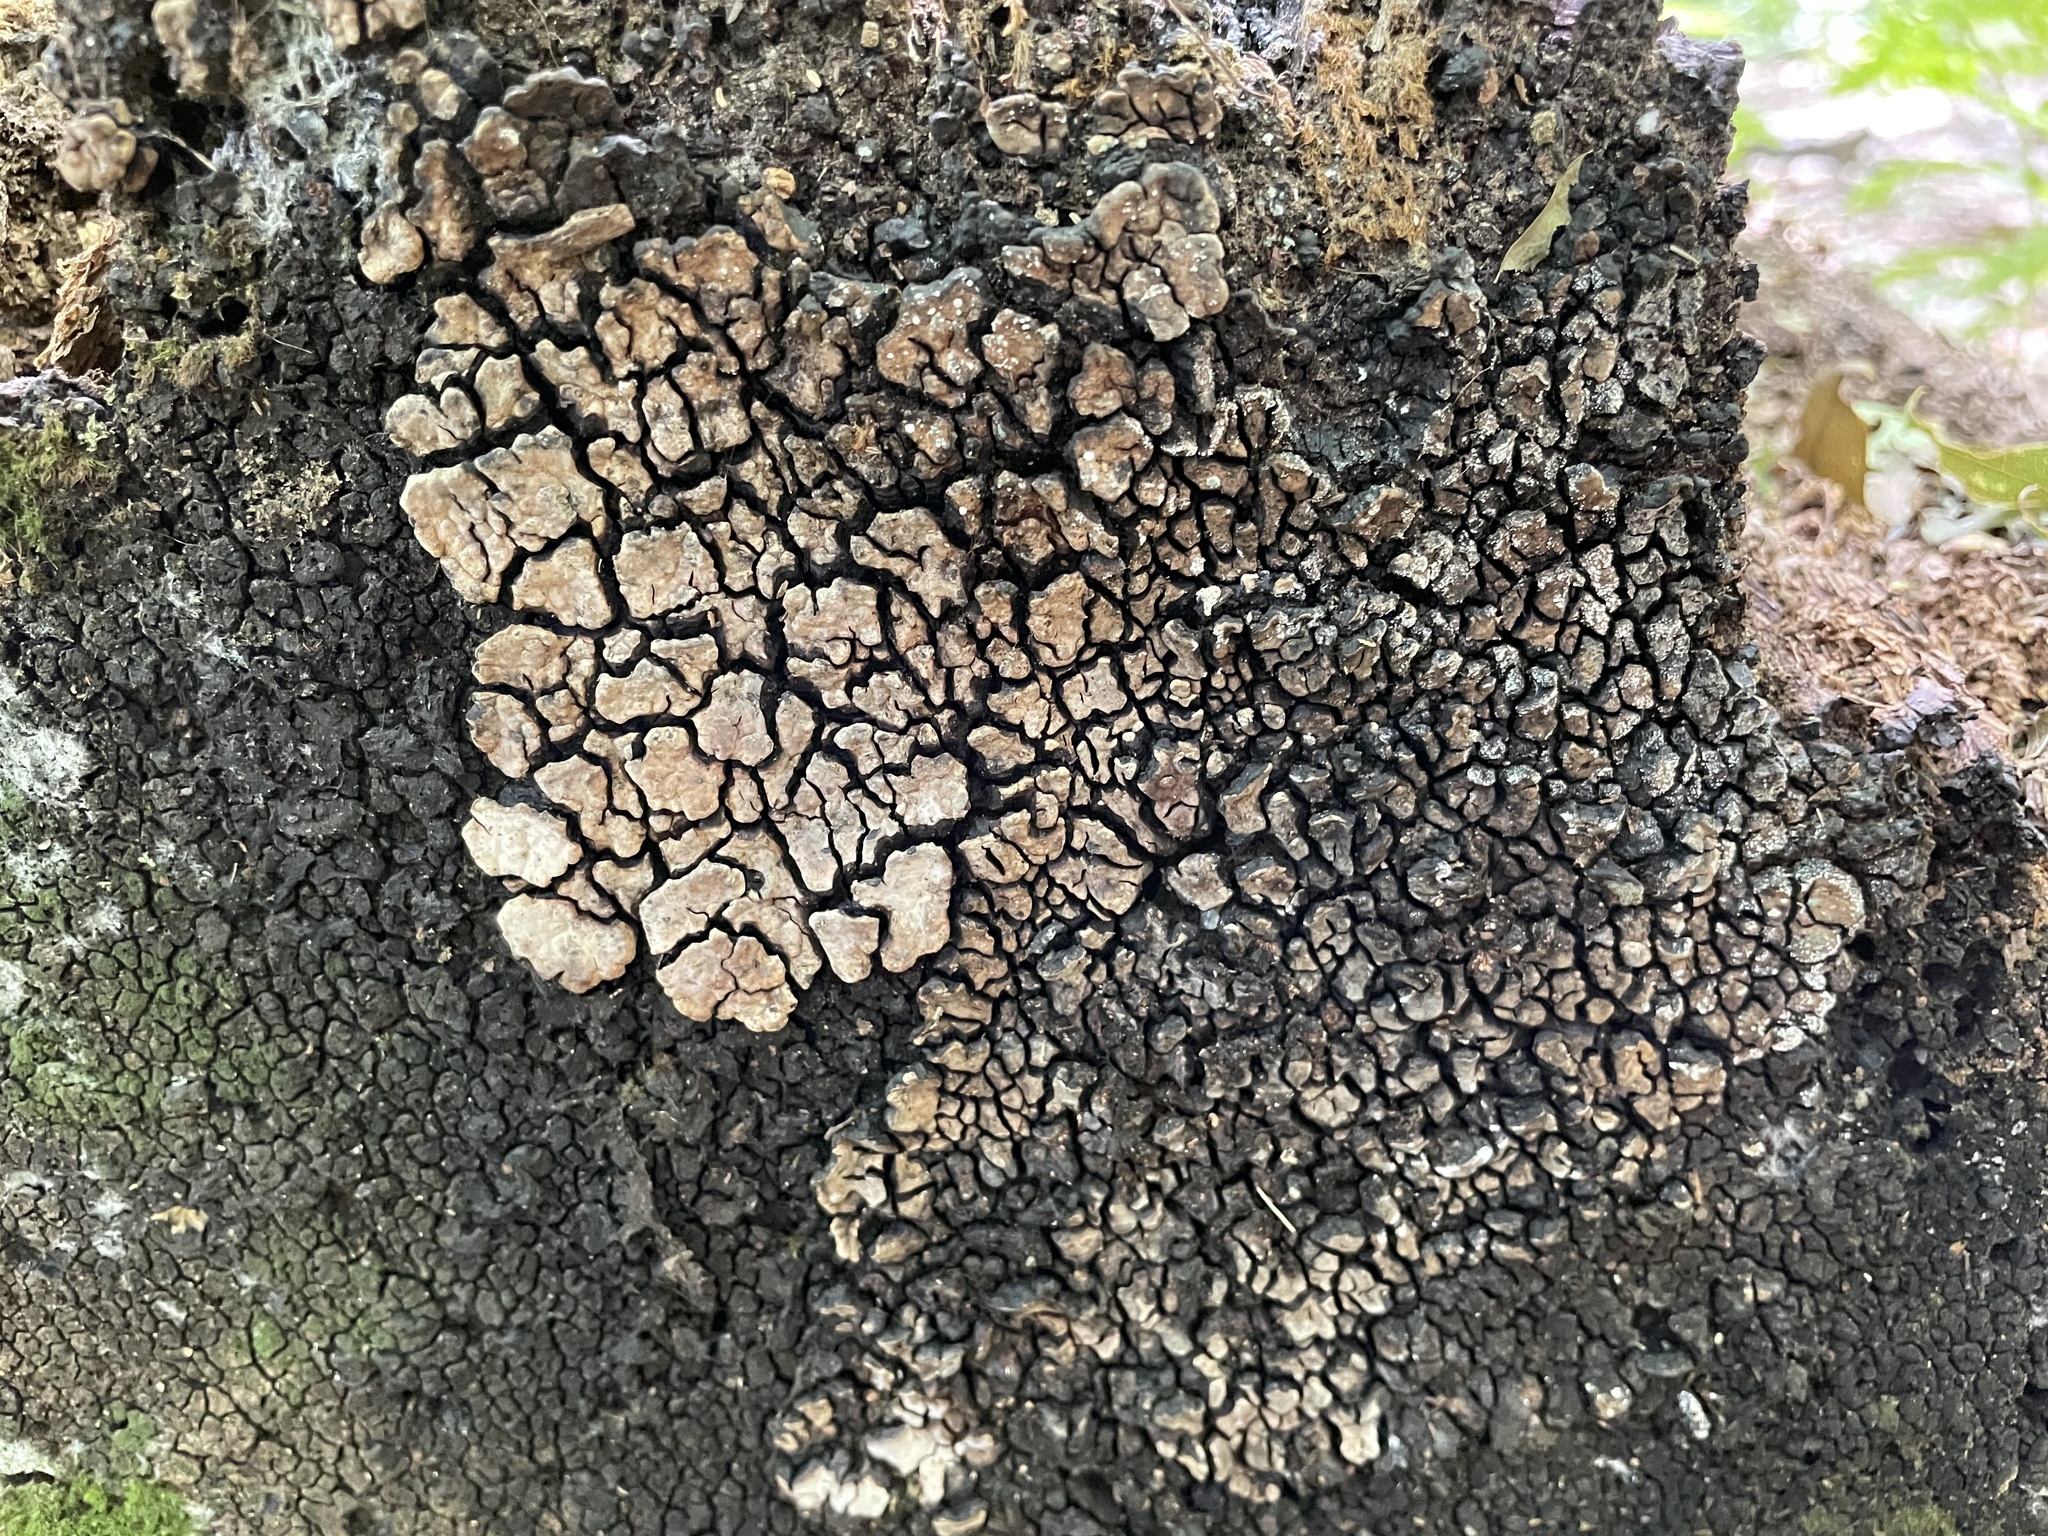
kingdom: Fungi
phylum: Basidiomycota
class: Agaricomycetes
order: Russulales
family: Stereaceae
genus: Xylobolus
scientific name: Xylobolus frustulatus
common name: Ceramic parchment
